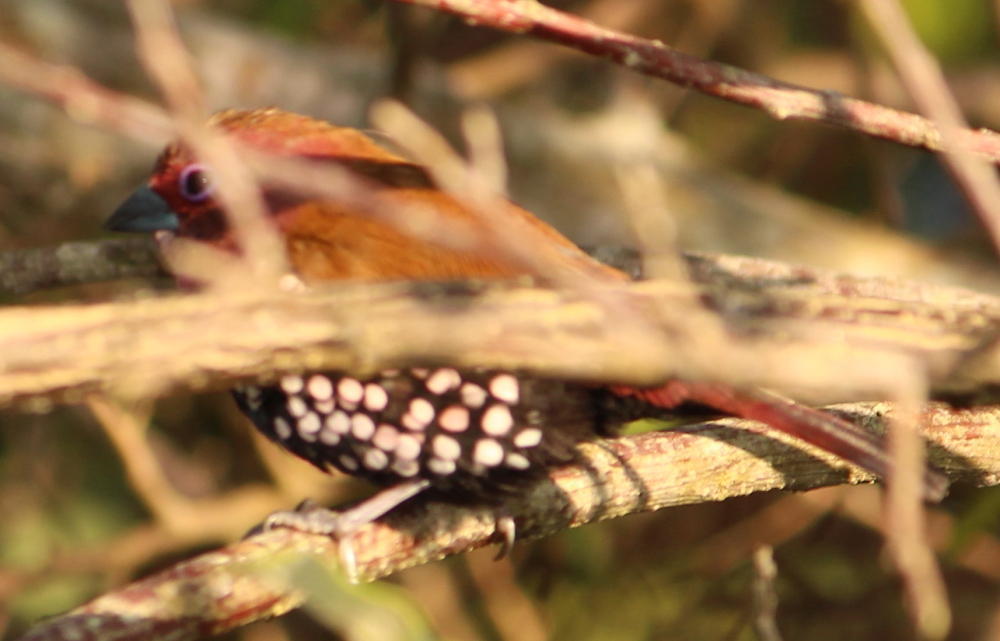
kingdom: Animalia
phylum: Chordata
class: Aves
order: Passeriformes
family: Estrildidae
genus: Hypargos
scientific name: Hypargos margaritatus
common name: Pink-throated twinspot
